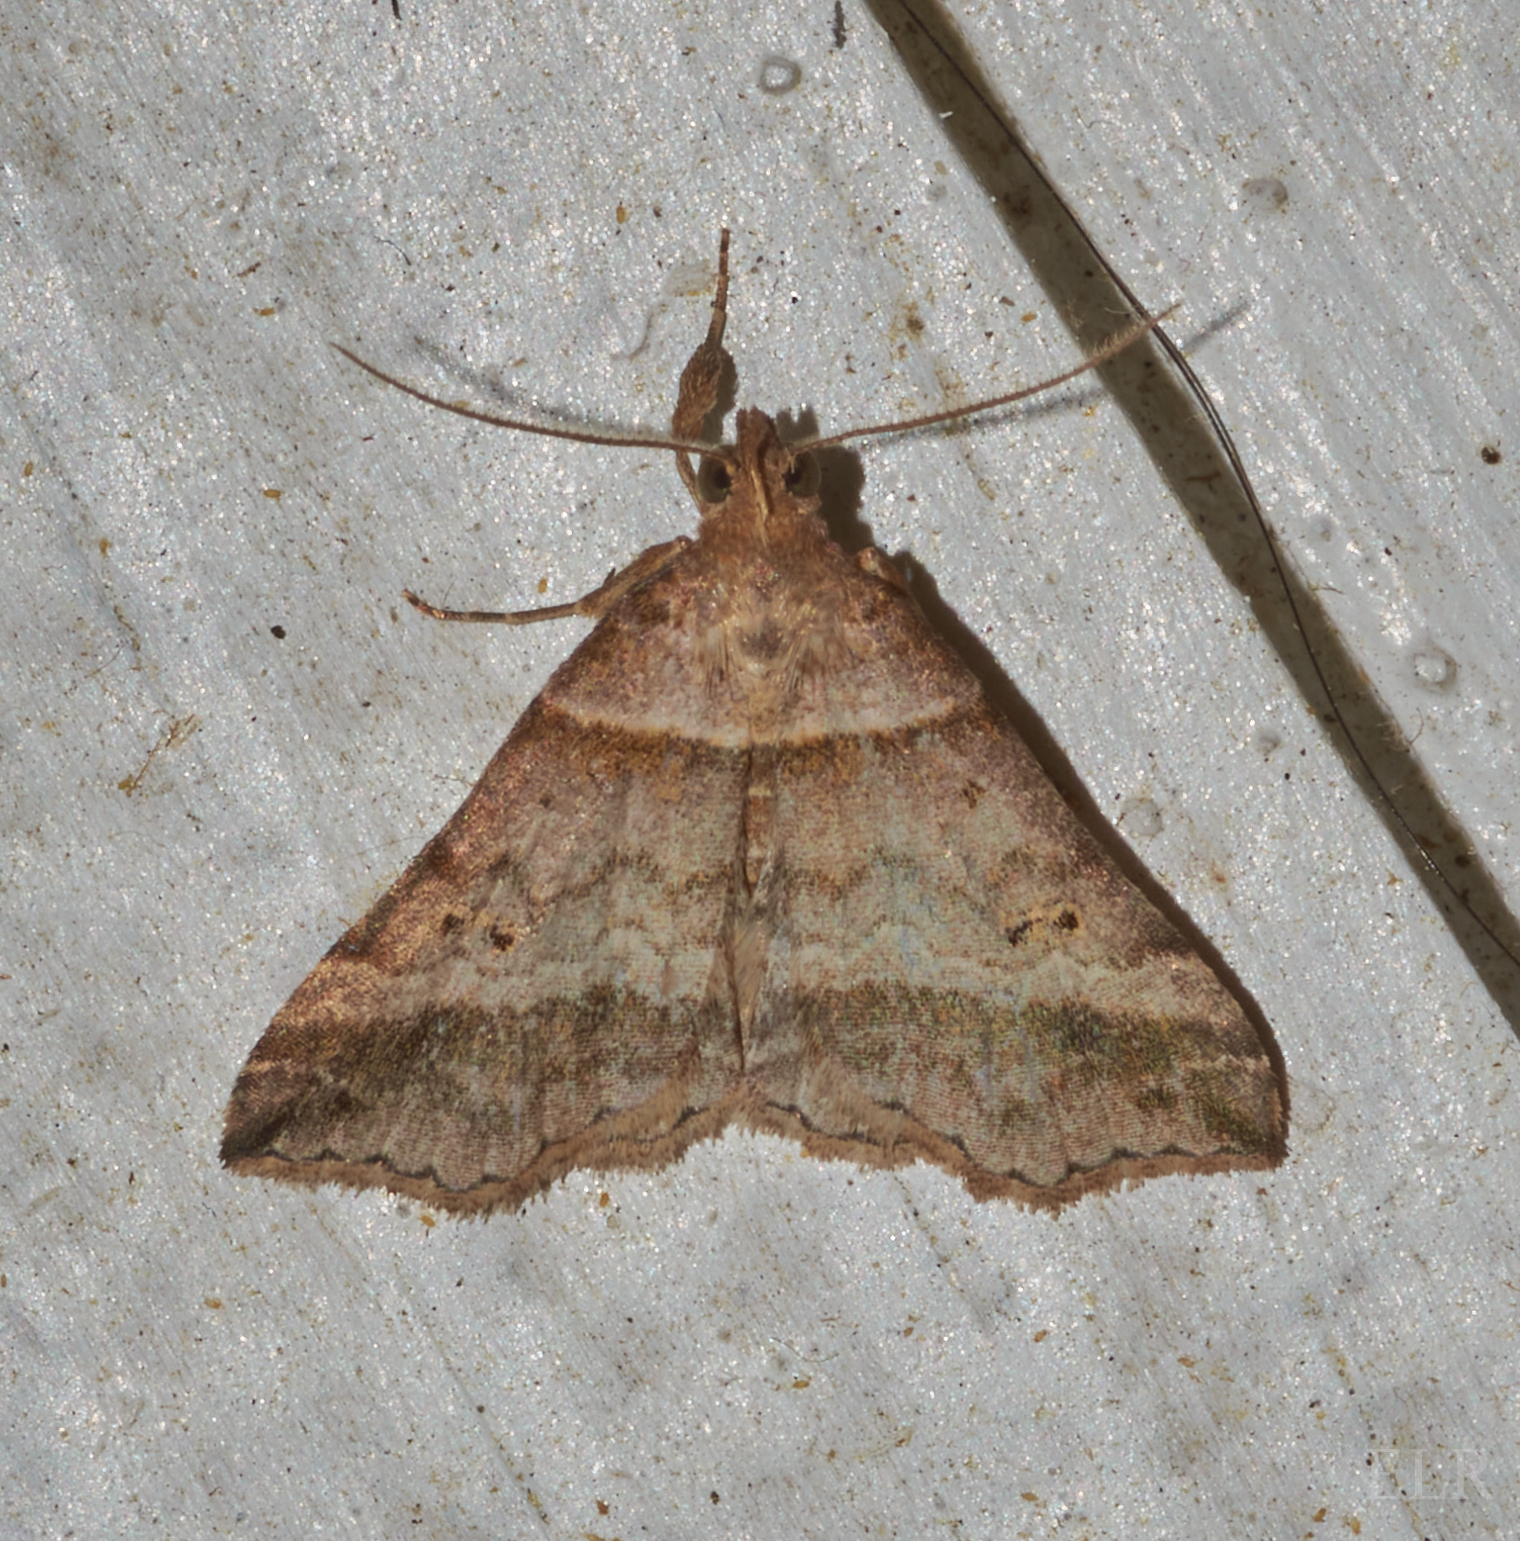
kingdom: Animalia
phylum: Arthropoda
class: Insecta
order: Lepidoptera
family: Erebidae
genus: Phaeolita
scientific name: Phaeolita pyramusalis
